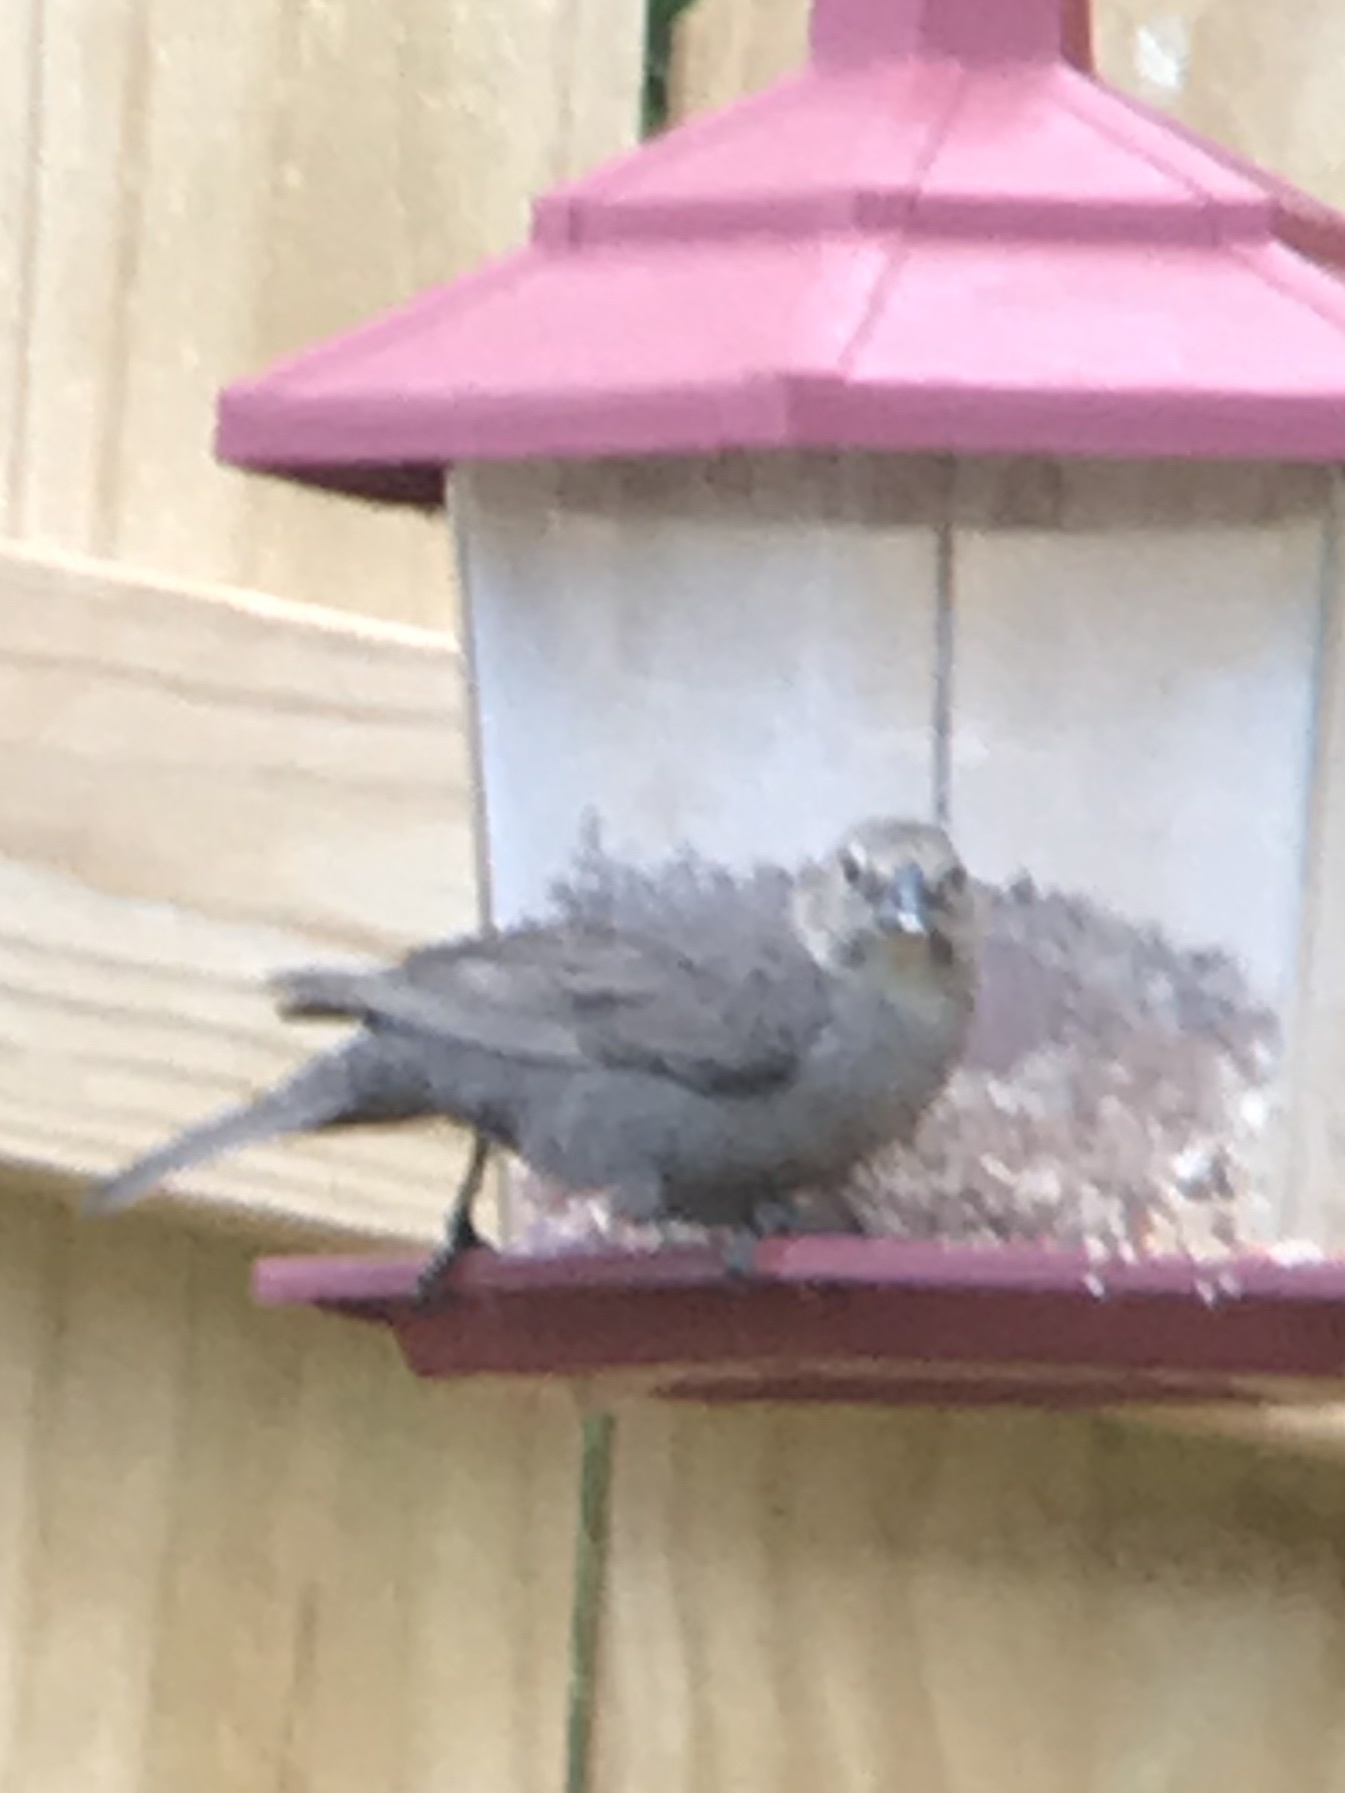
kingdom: Animalia
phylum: Chordata
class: Aves
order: Passeriformes
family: Icteridae
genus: Molothrus
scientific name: Molothrus ater
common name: Brown-headed cowbird
